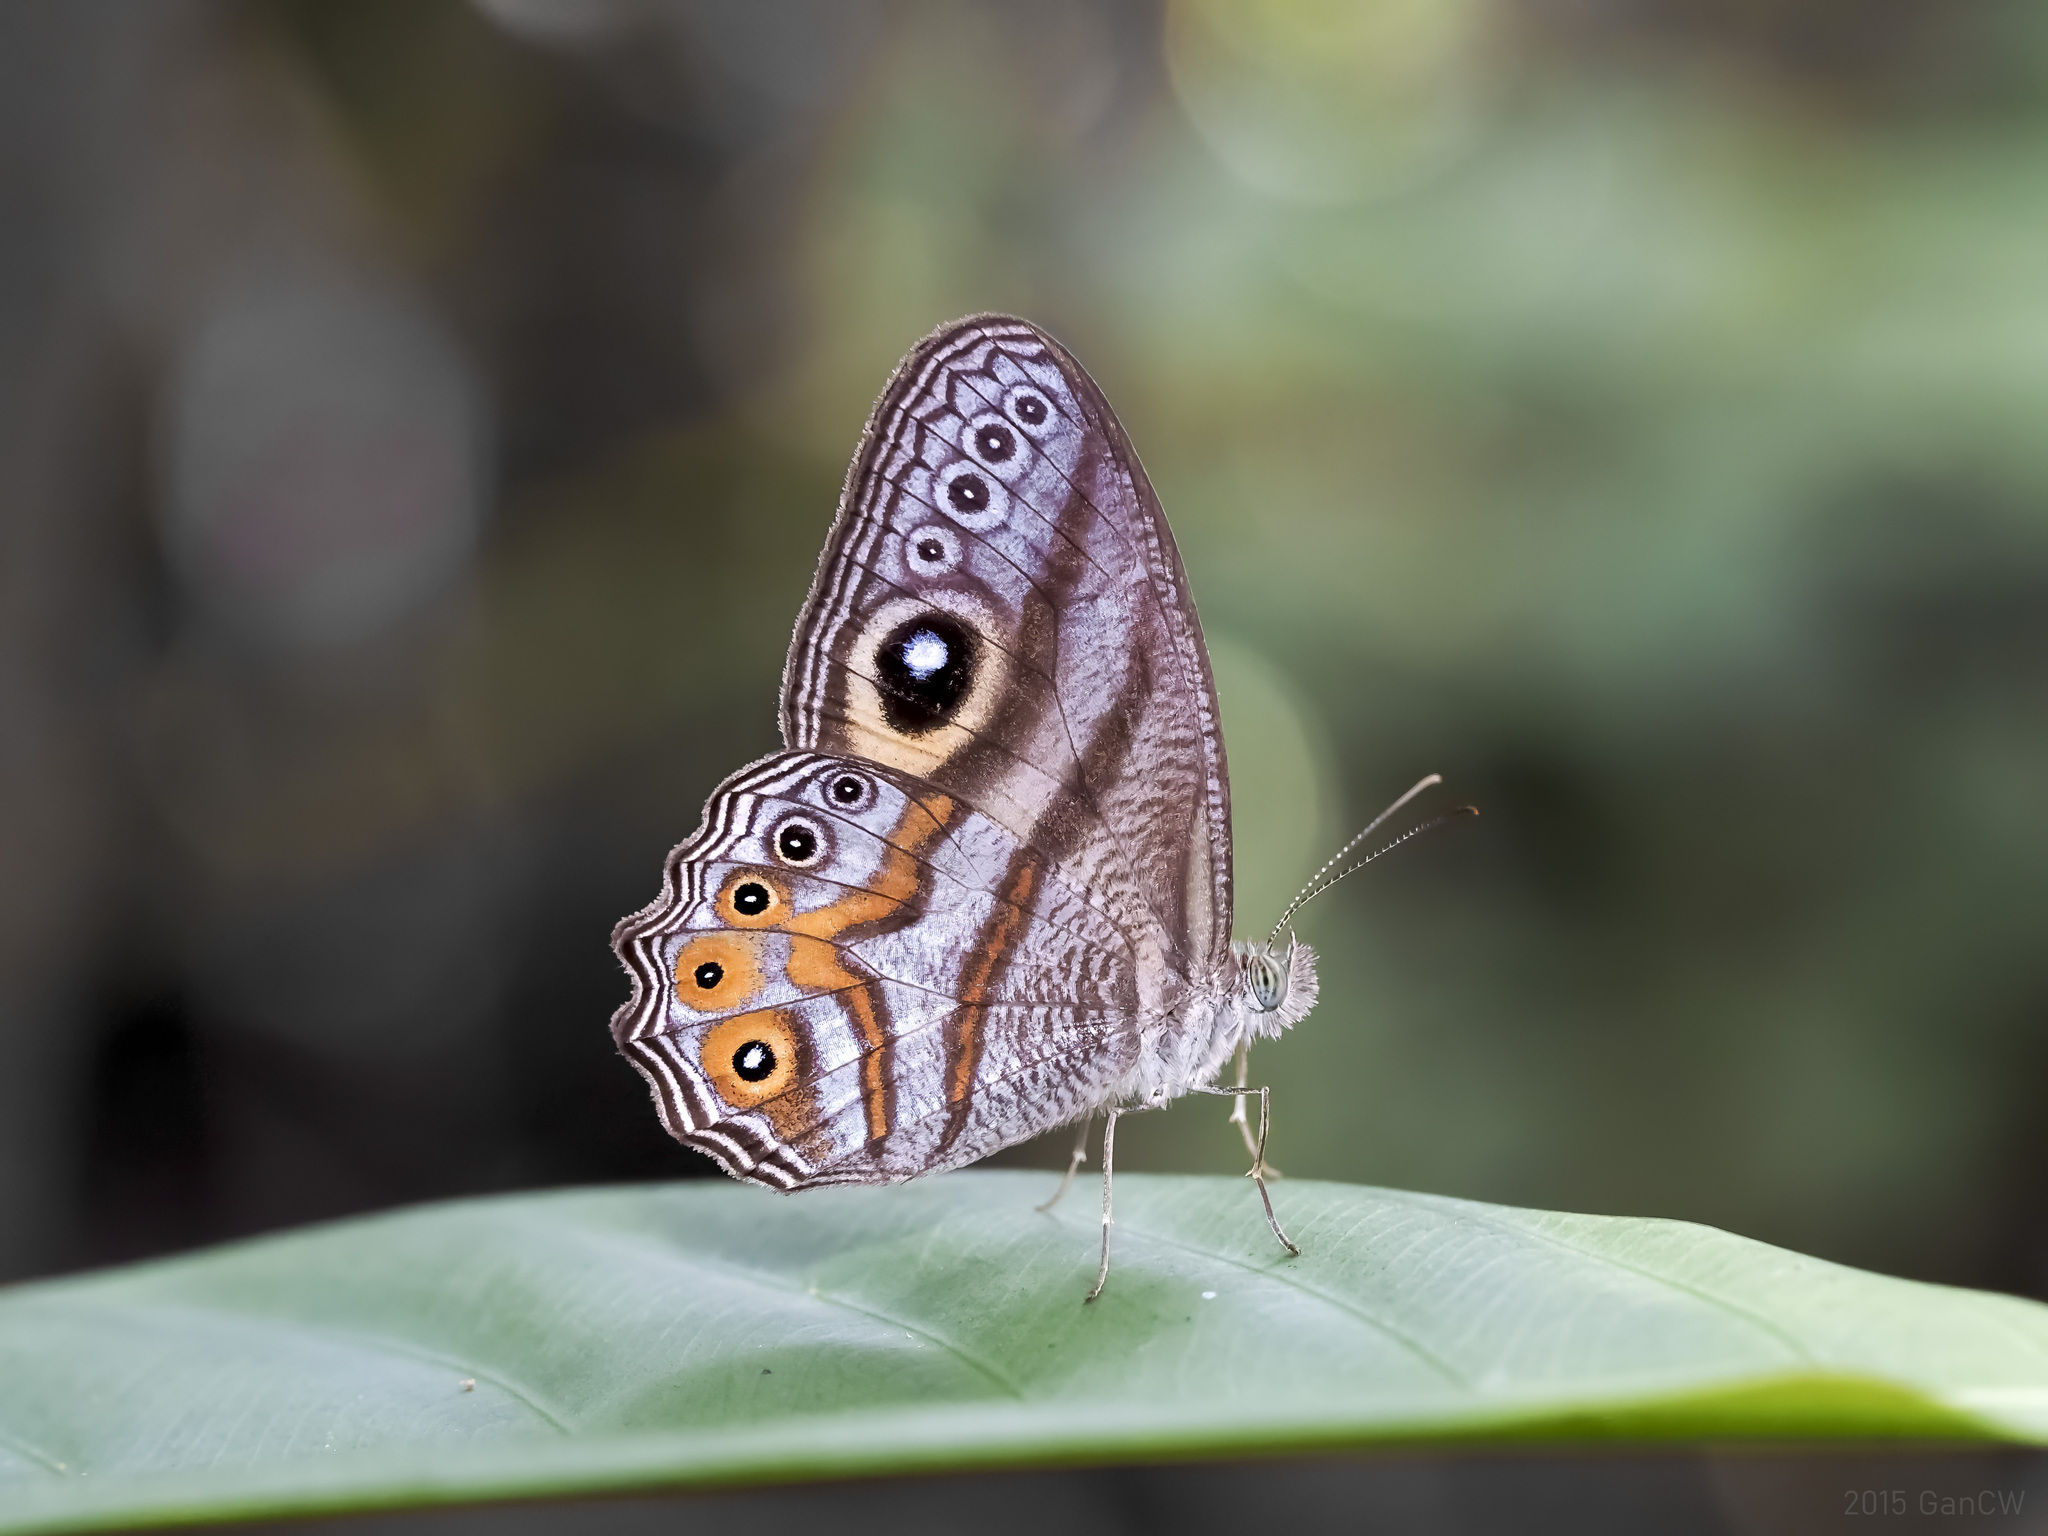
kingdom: Animalia
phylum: Arthropoda
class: Insecta
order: Lepidoptera
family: Nymphalidae
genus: Erites
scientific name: Erites argentina
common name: Eyed cyclops
